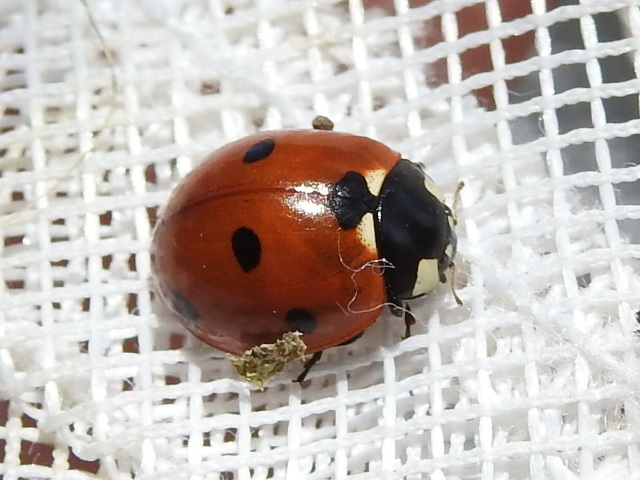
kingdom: Animalia
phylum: Arthropoda
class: Insecta
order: Coleoptera
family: Coccinellidae
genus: Coccinella
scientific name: Coccinella septempunctata
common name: Sevenspotted lady beetle
